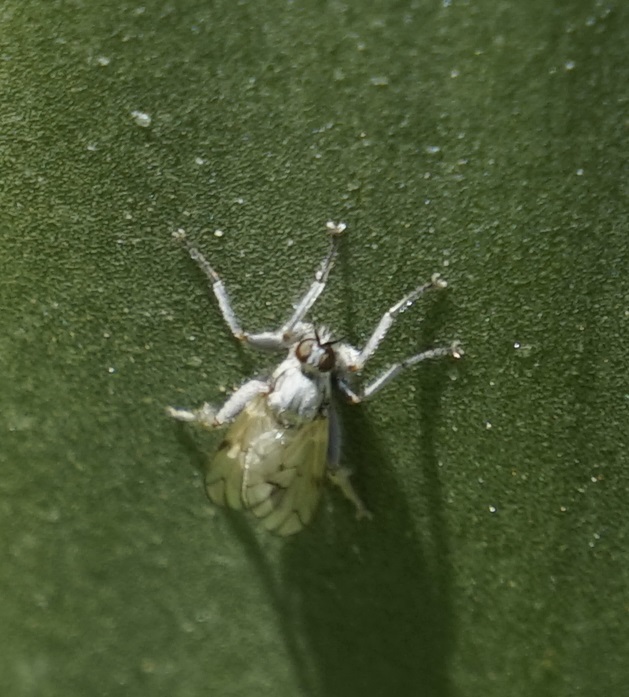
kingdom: Animalia
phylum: Arthropoda
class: Insecta
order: Diptera
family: Empididae
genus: Thinempis
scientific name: Thinempis turimetta
